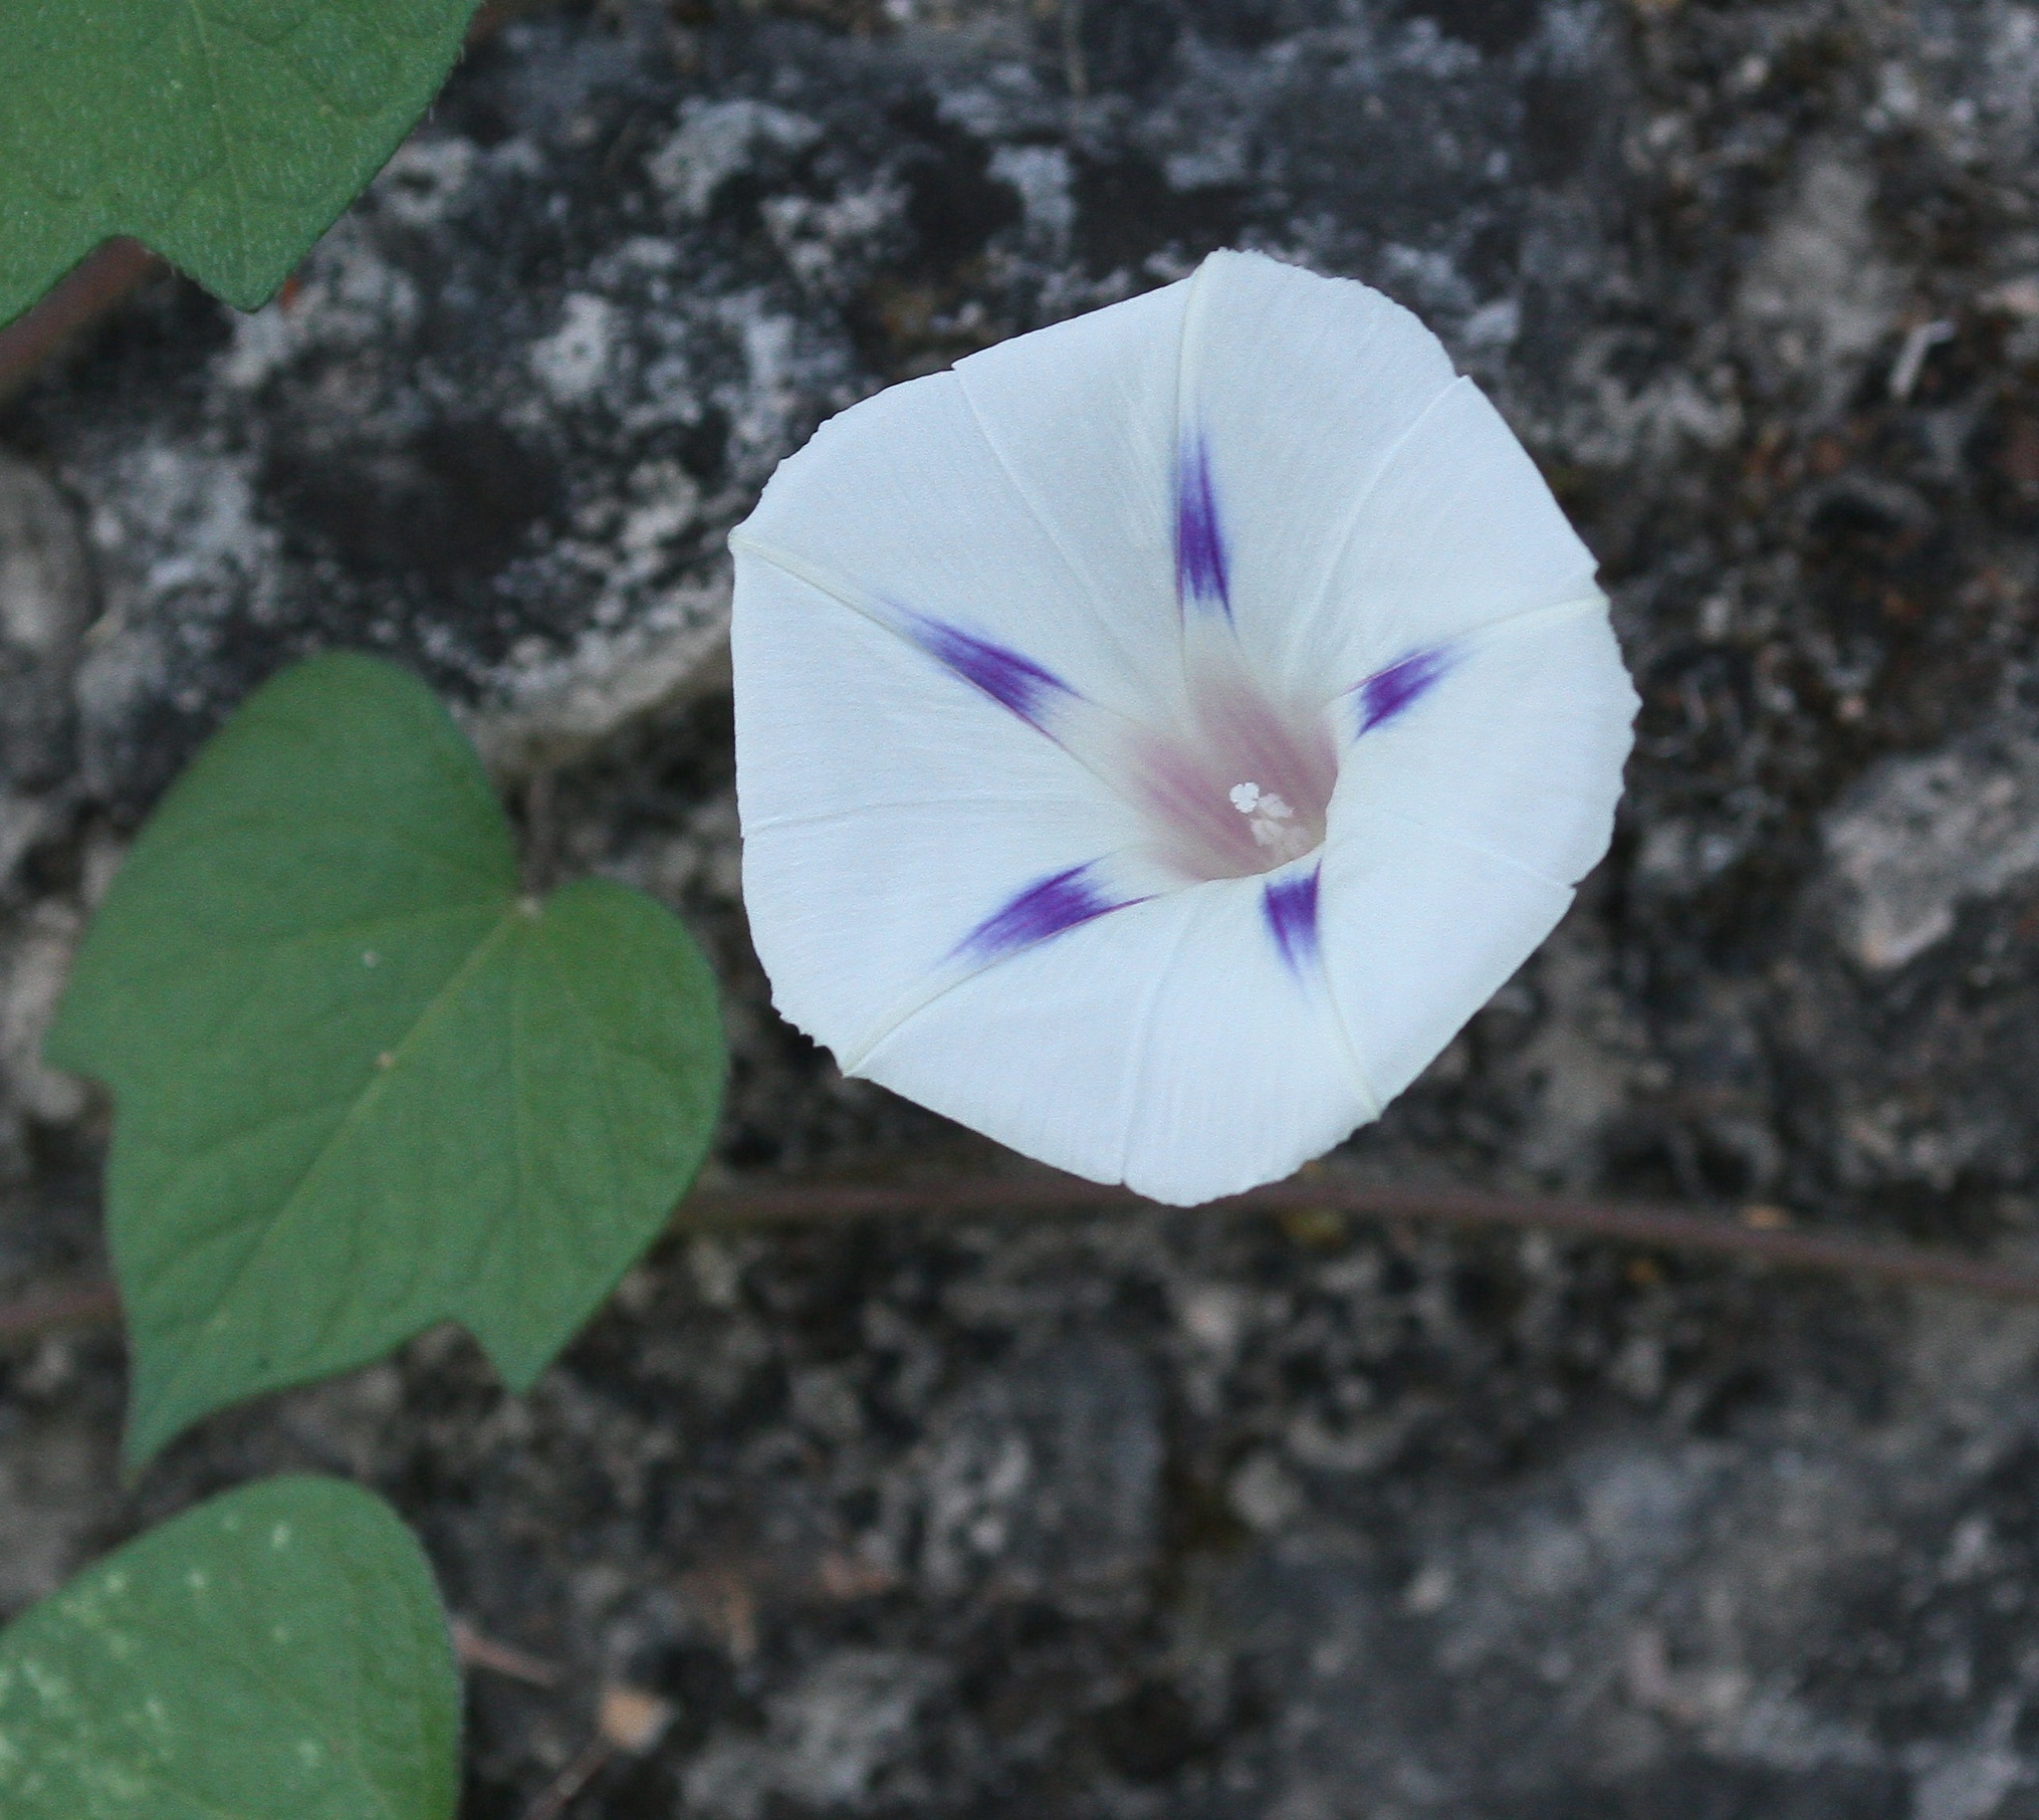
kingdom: Plantae
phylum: Tracheophyta
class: Magnoliopsida
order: Solanales
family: Convolvulaceae
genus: Ipomoea
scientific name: Ipomoea purpurea
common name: Common morning-glory
